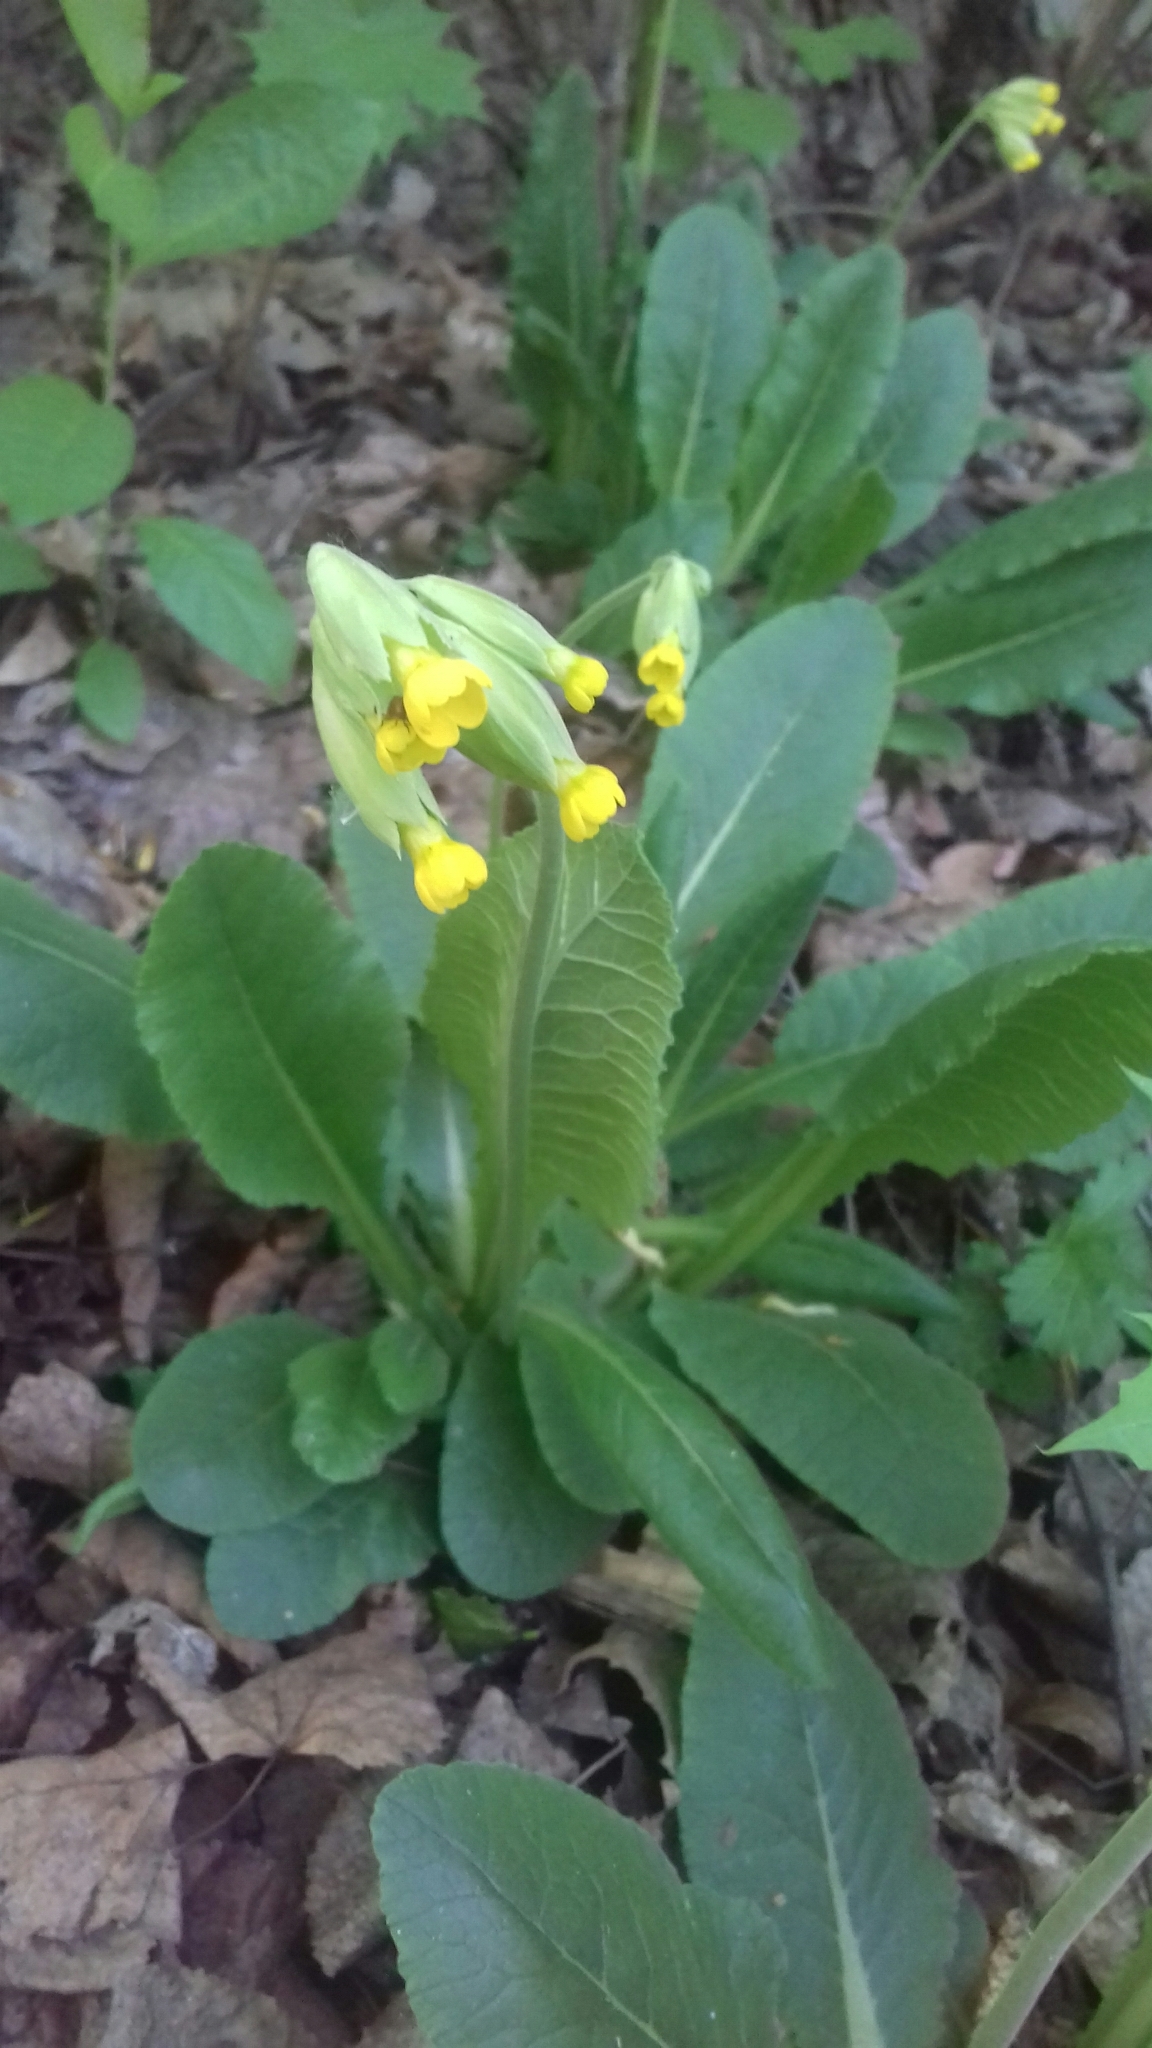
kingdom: Plantae
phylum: Tracheophyta
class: Magnoliopsida
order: Ericales
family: Primulaceae
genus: Primula
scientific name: Primula veris
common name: Cowslip
